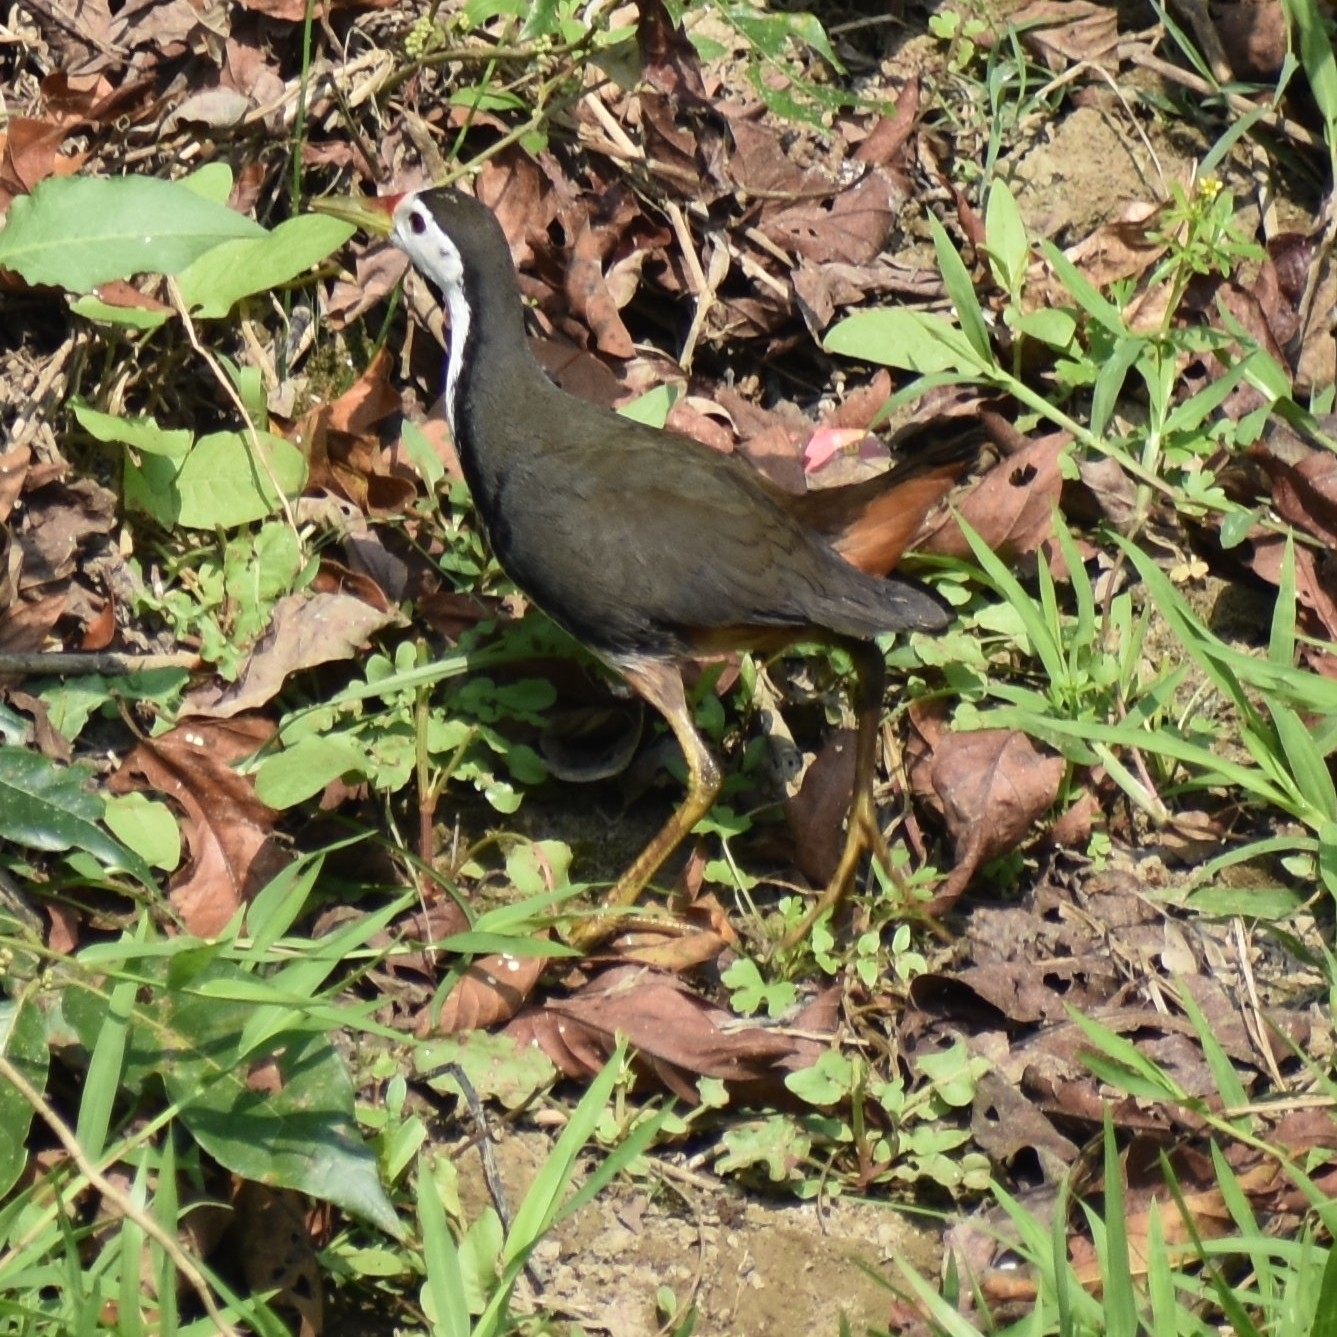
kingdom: Animalia
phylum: Chordata
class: Aves
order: Gruiformes
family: Rallidae
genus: Amaurornis
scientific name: Amaurornis phoenicurus
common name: White-breasted waterhen
